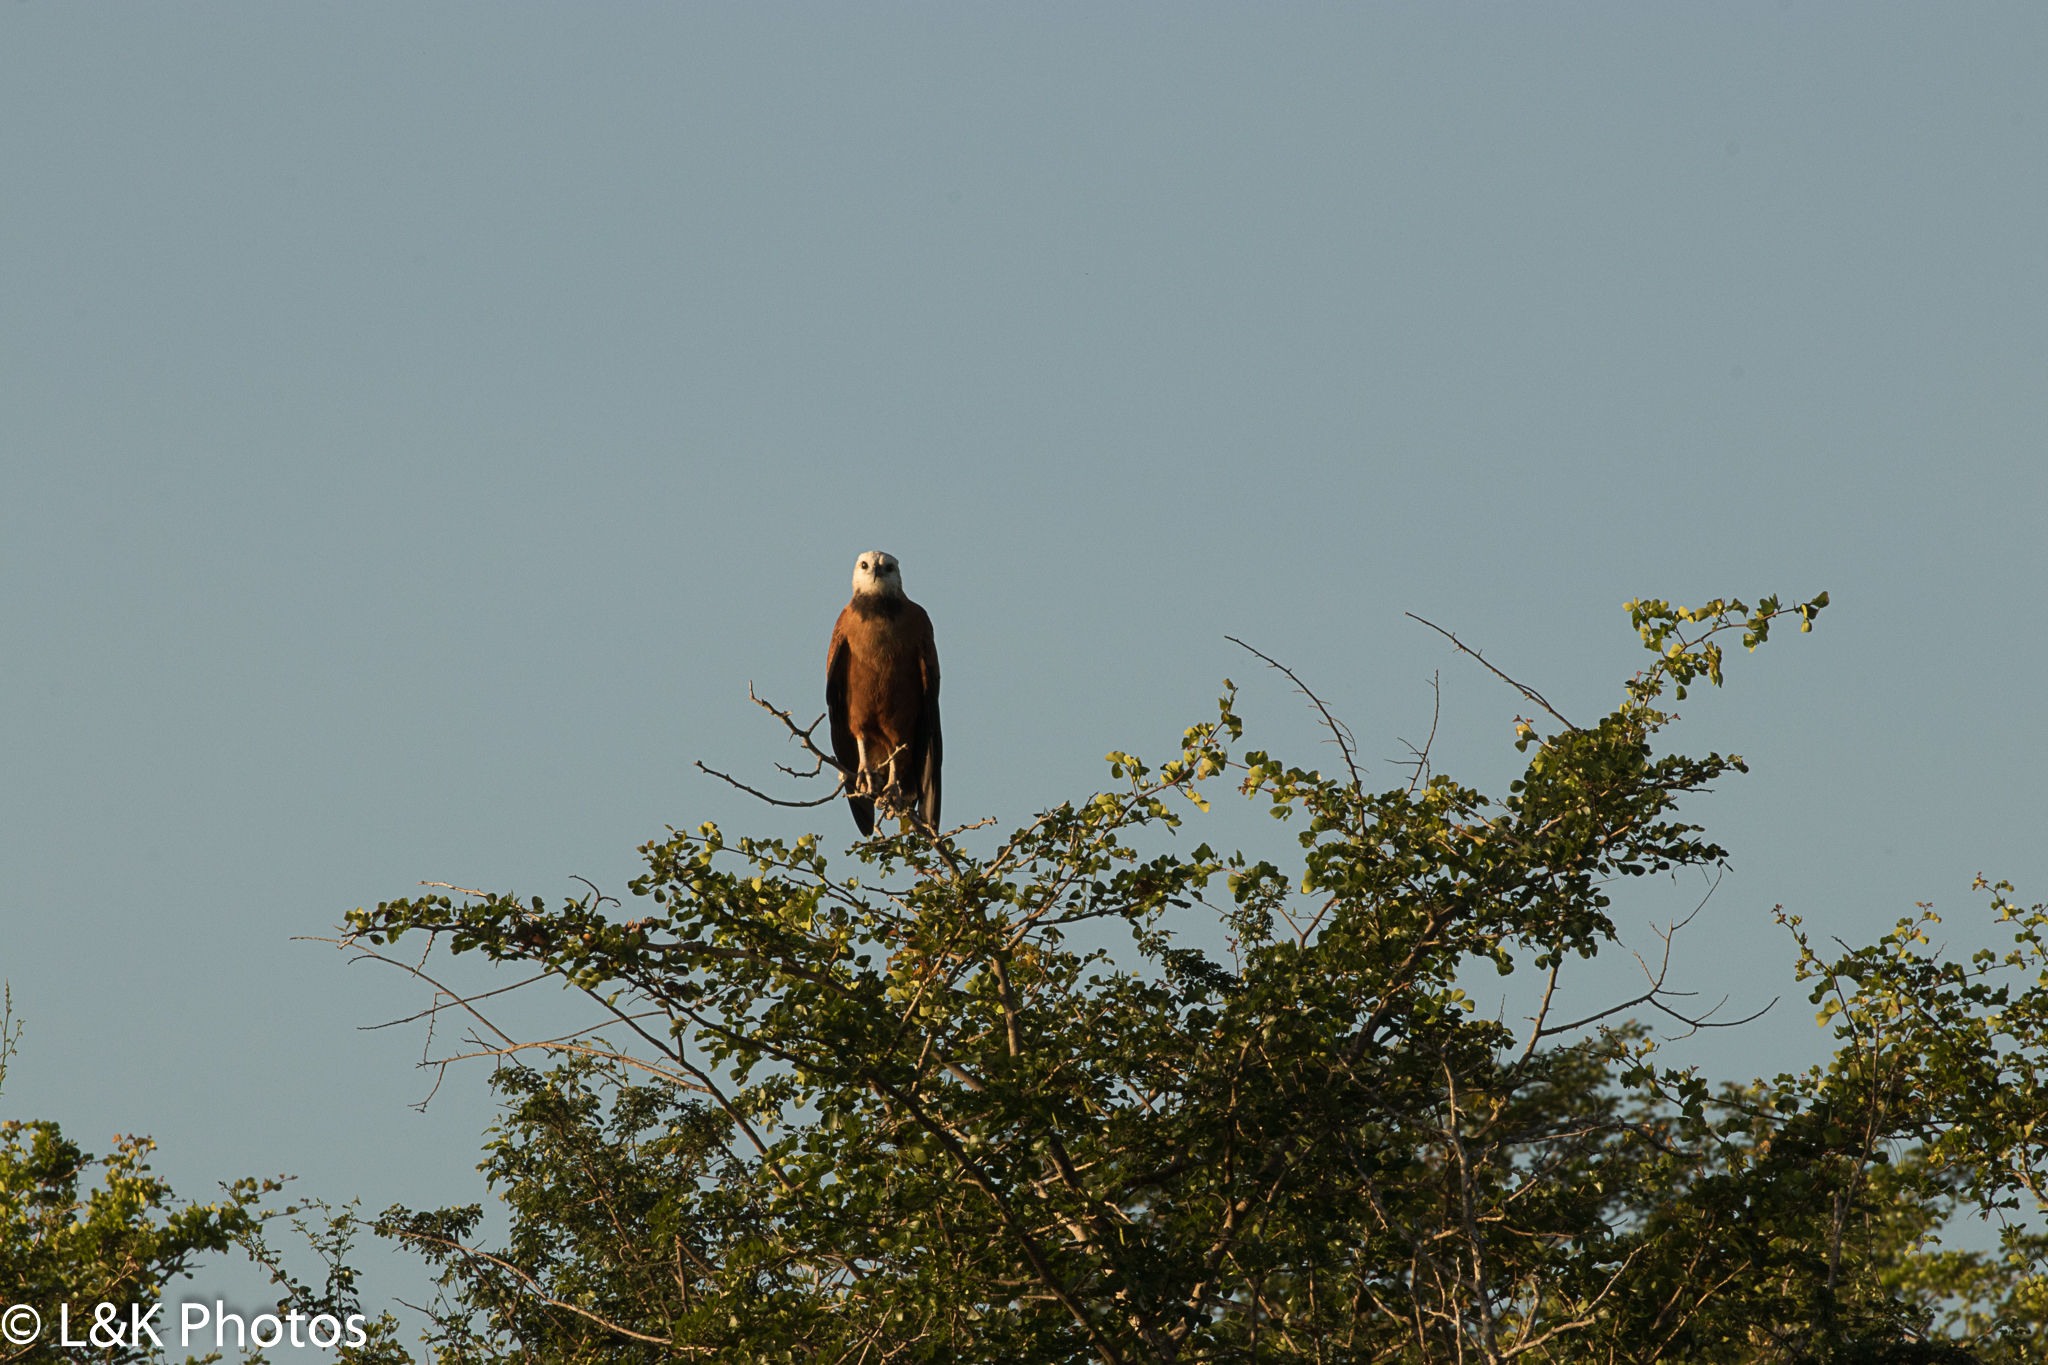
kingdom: Animalia
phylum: Chordata
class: Aves
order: Accipitriformes
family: Accipitridae
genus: Busarellus
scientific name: Busarellus nigricollis
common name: Black-collared hawk
